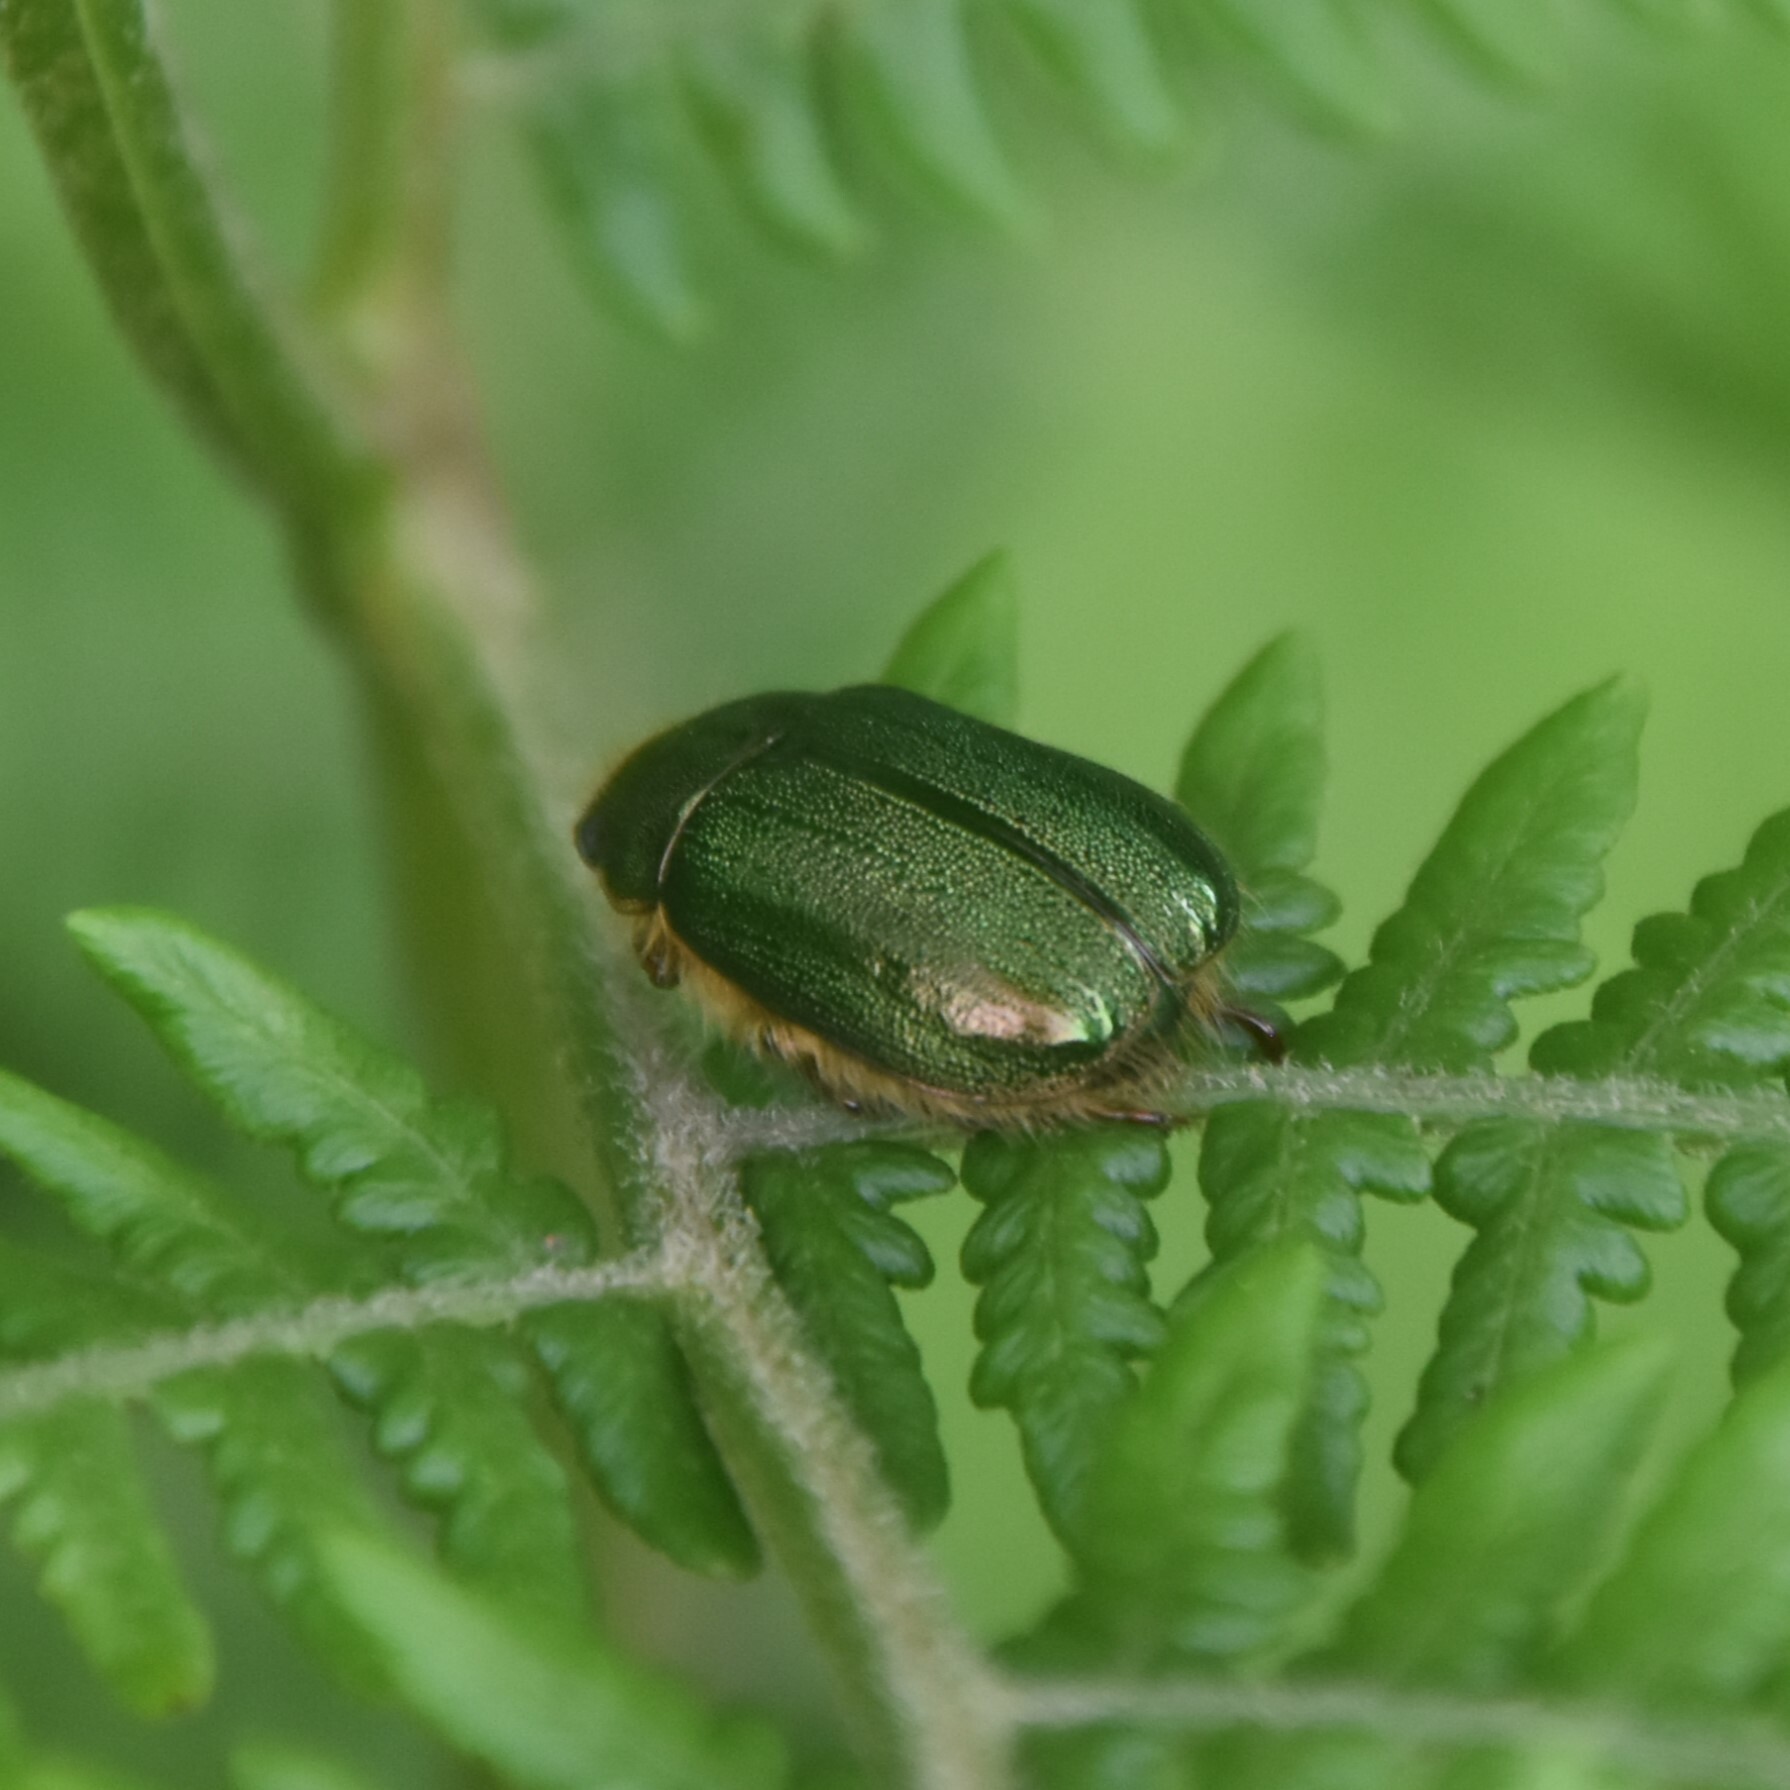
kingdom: Animalia
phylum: Arthropoda
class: Insecta
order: Coleoptera
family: Scarabaeidae
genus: Mimela
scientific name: Mimela pectoralis
